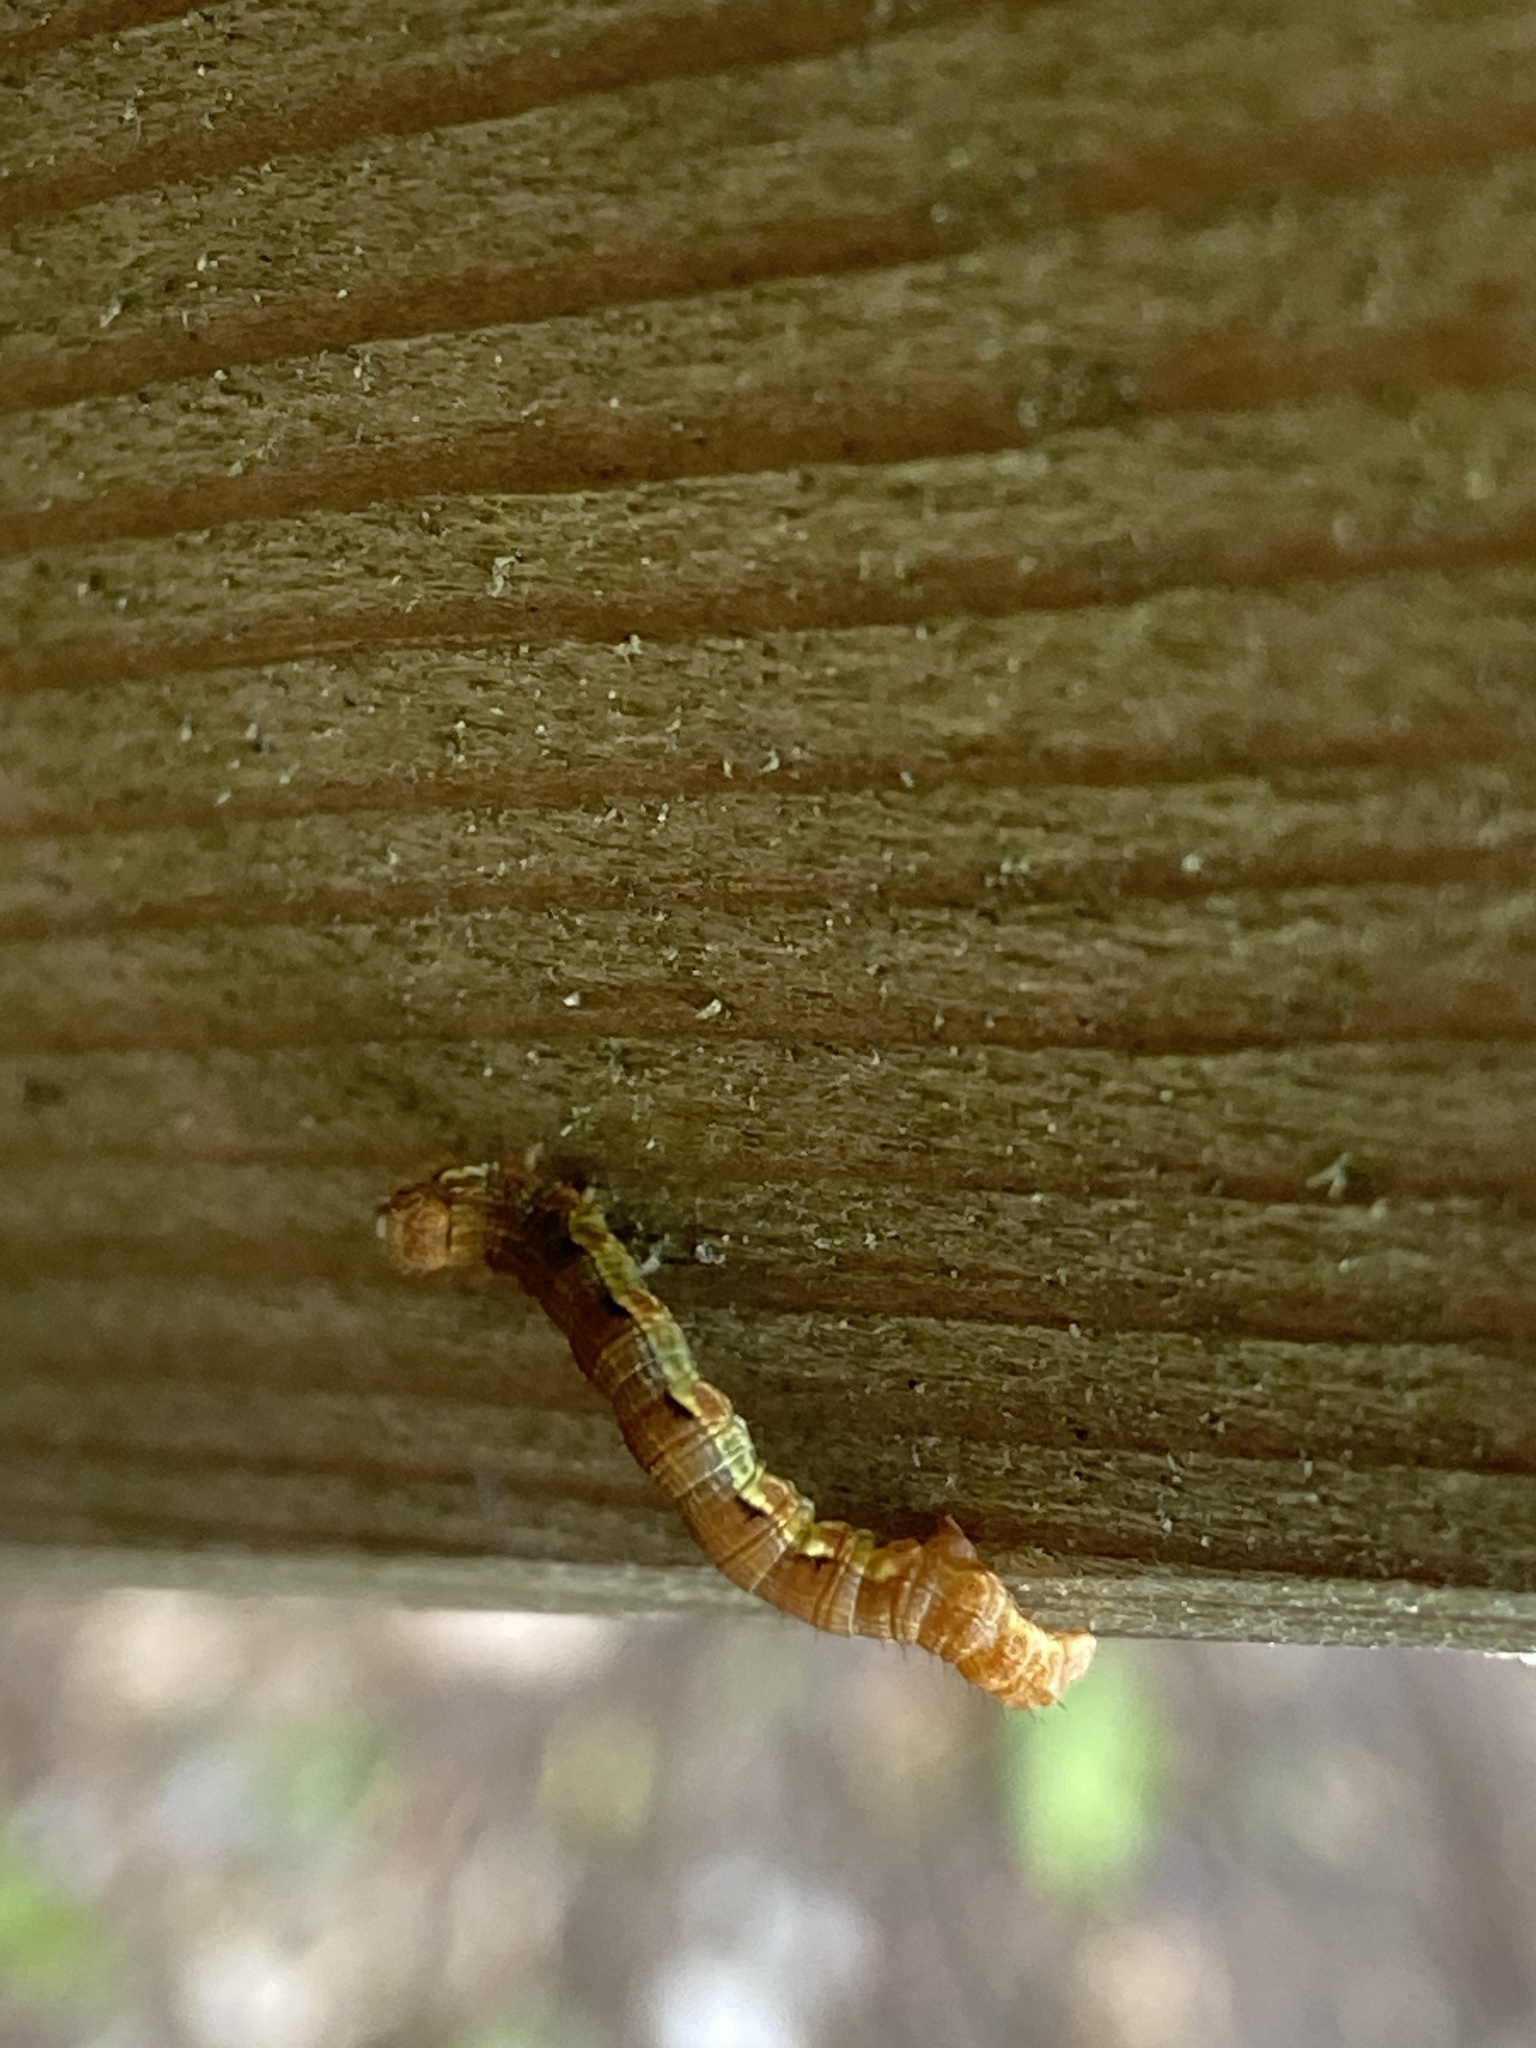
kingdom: Animalia
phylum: Arthropoda
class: Insecta
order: Lepidoptera
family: Geometridae
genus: Erannis
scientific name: Erannis defoliaria
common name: Mottled umber
